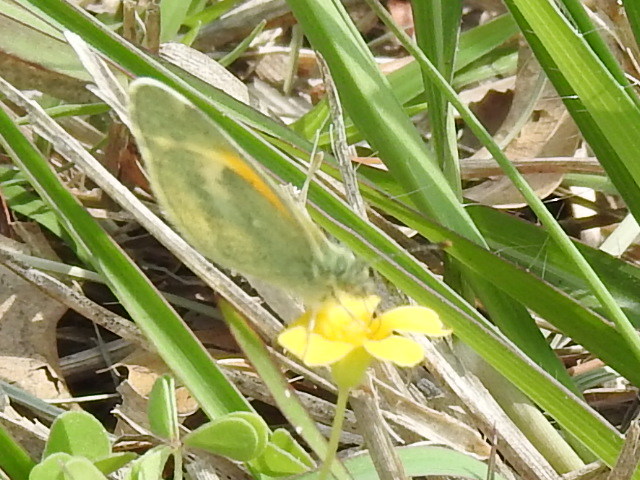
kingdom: Animalia
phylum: Arthropoda
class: Insecta
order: Lepidoptera
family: Pieridae
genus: Nathalis
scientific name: Nathalis iole
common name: Dainty sulphur
